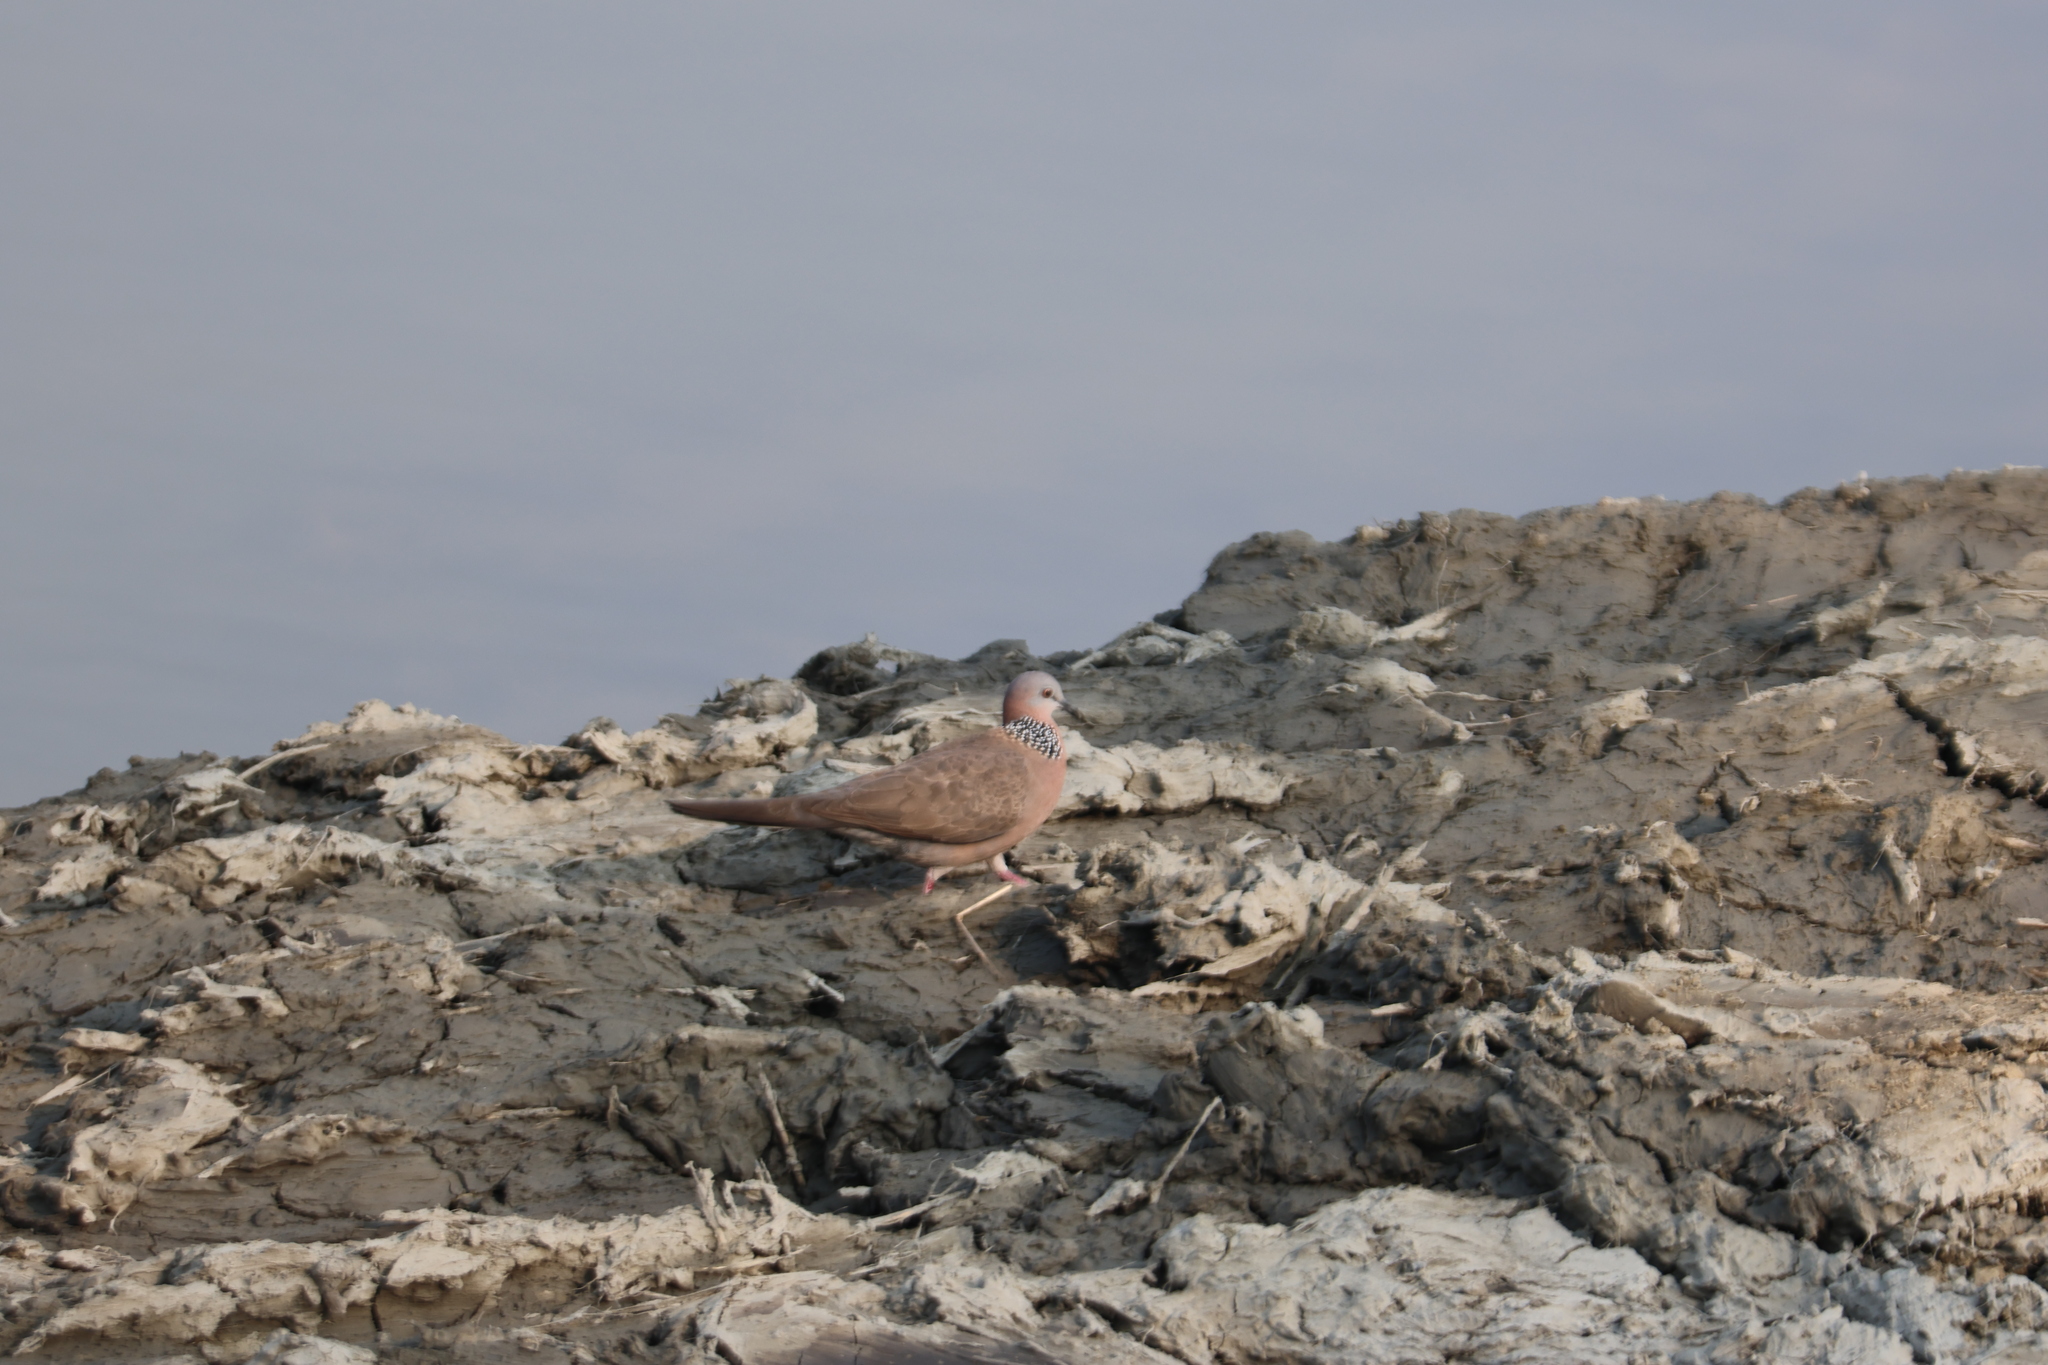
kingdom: Animalia
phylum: Chordata
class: Aves
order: Columbiformes
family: Columbidae
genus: Spilopelia
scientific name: Spilopelia chinensis
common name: Spotted dove
